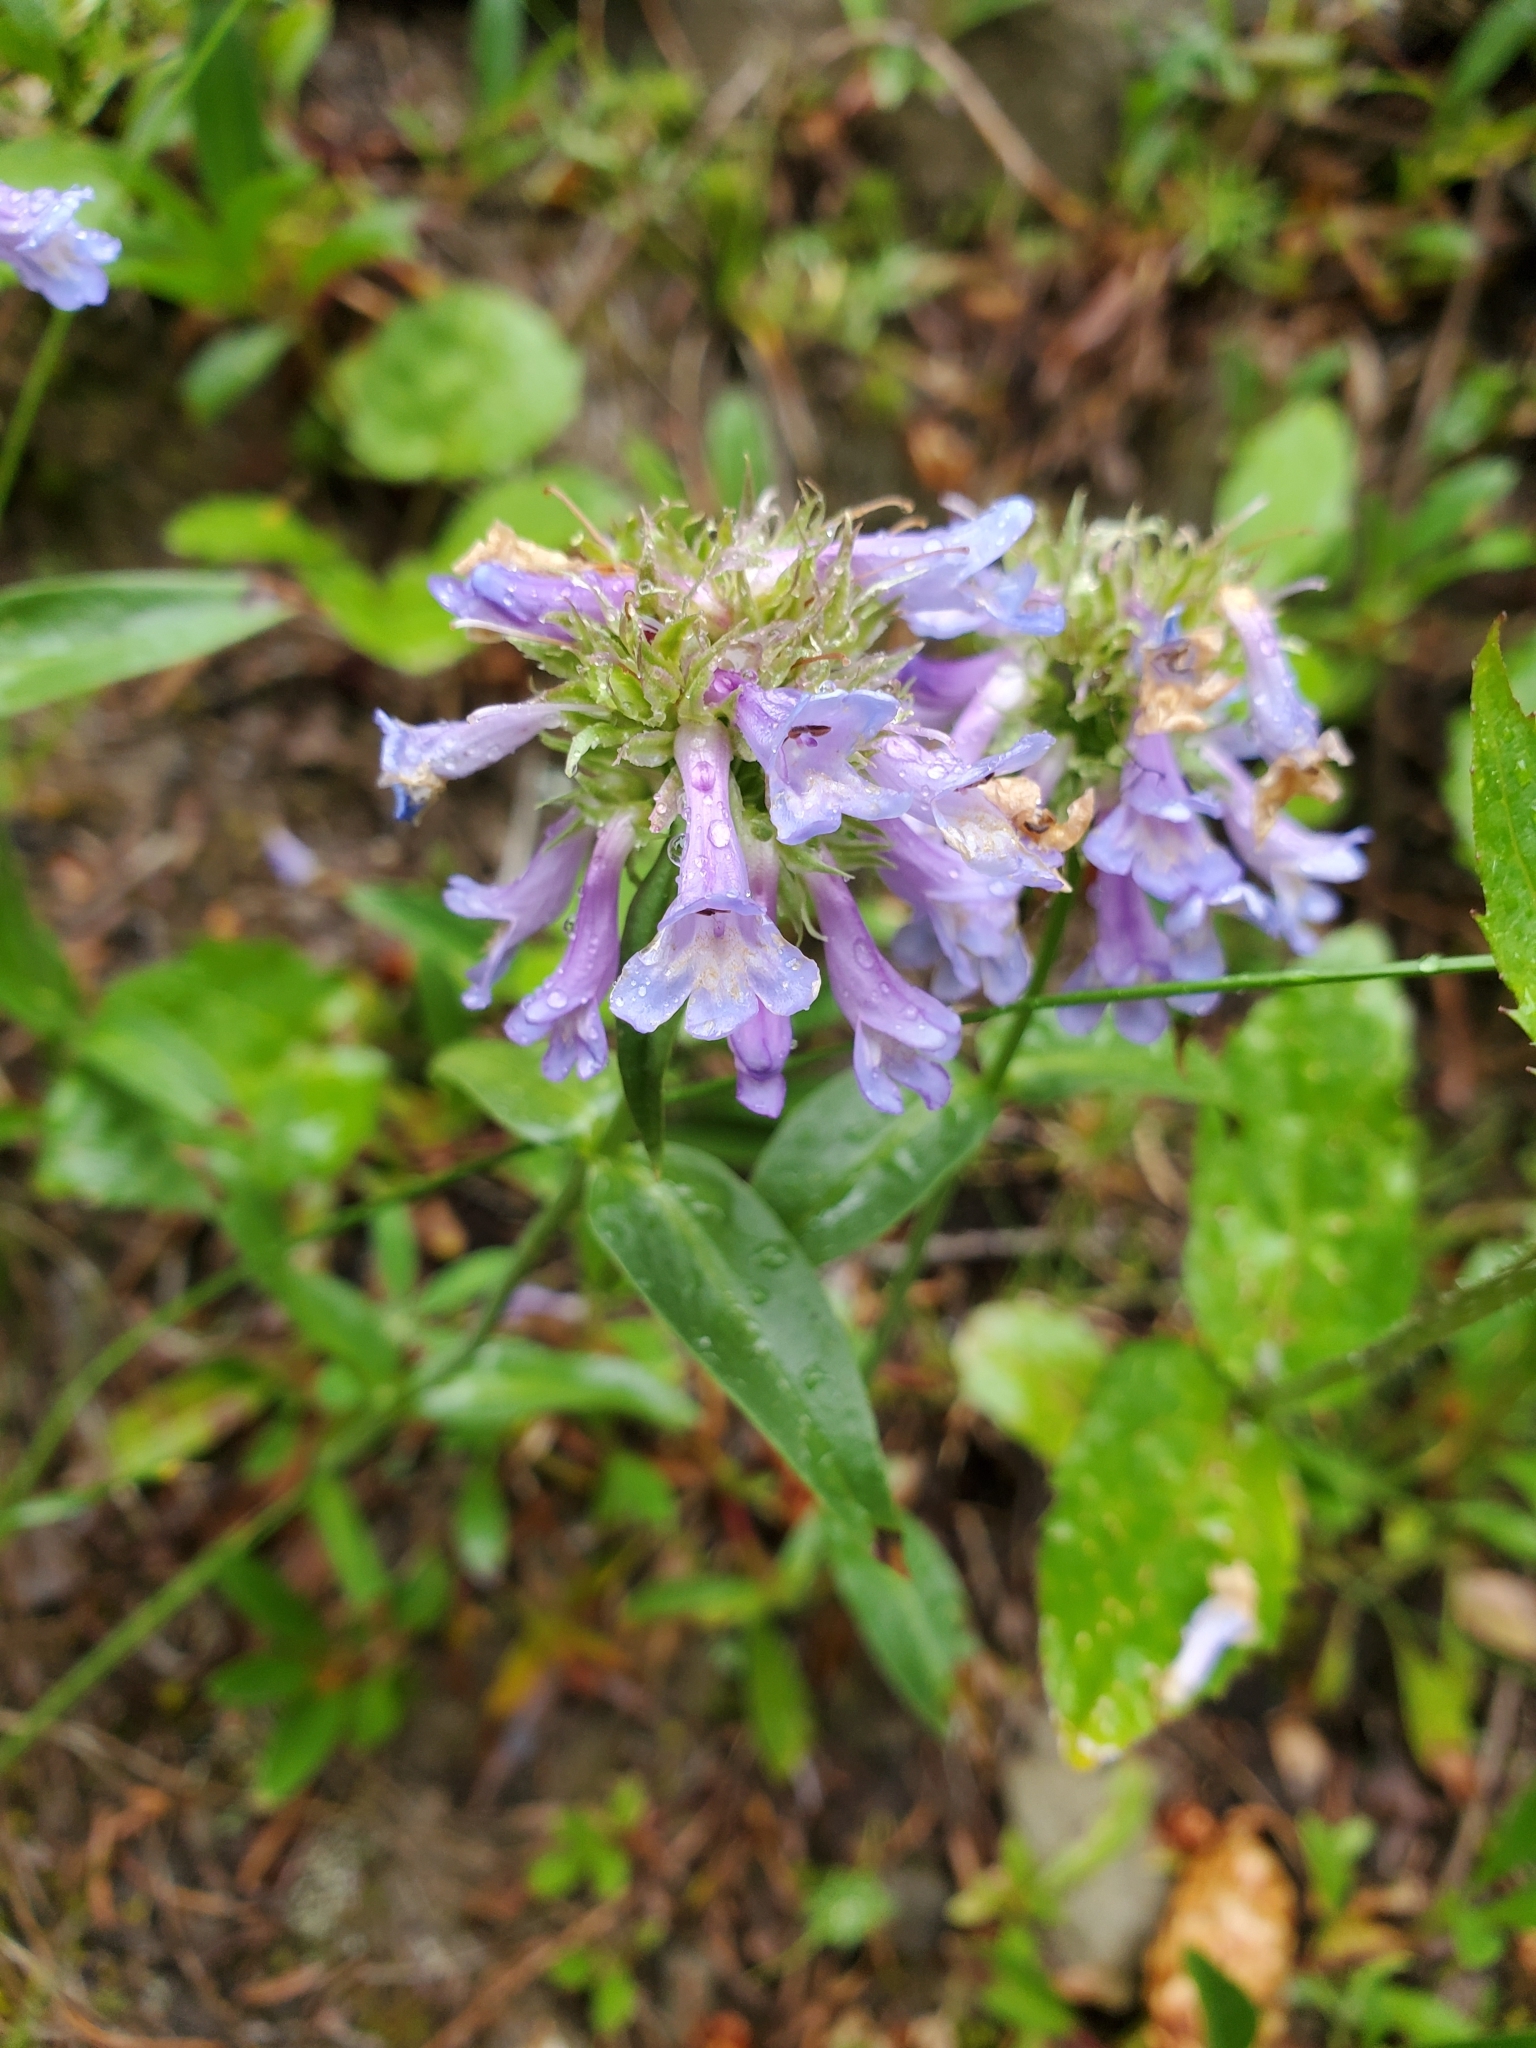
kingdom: Plantae
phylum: Tracheophyta
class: Magnoliopsida
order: Lamiales
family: Plantaginaceae
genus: Penstemon
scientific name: Penstemon procerus
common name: Small-flower penstemon
